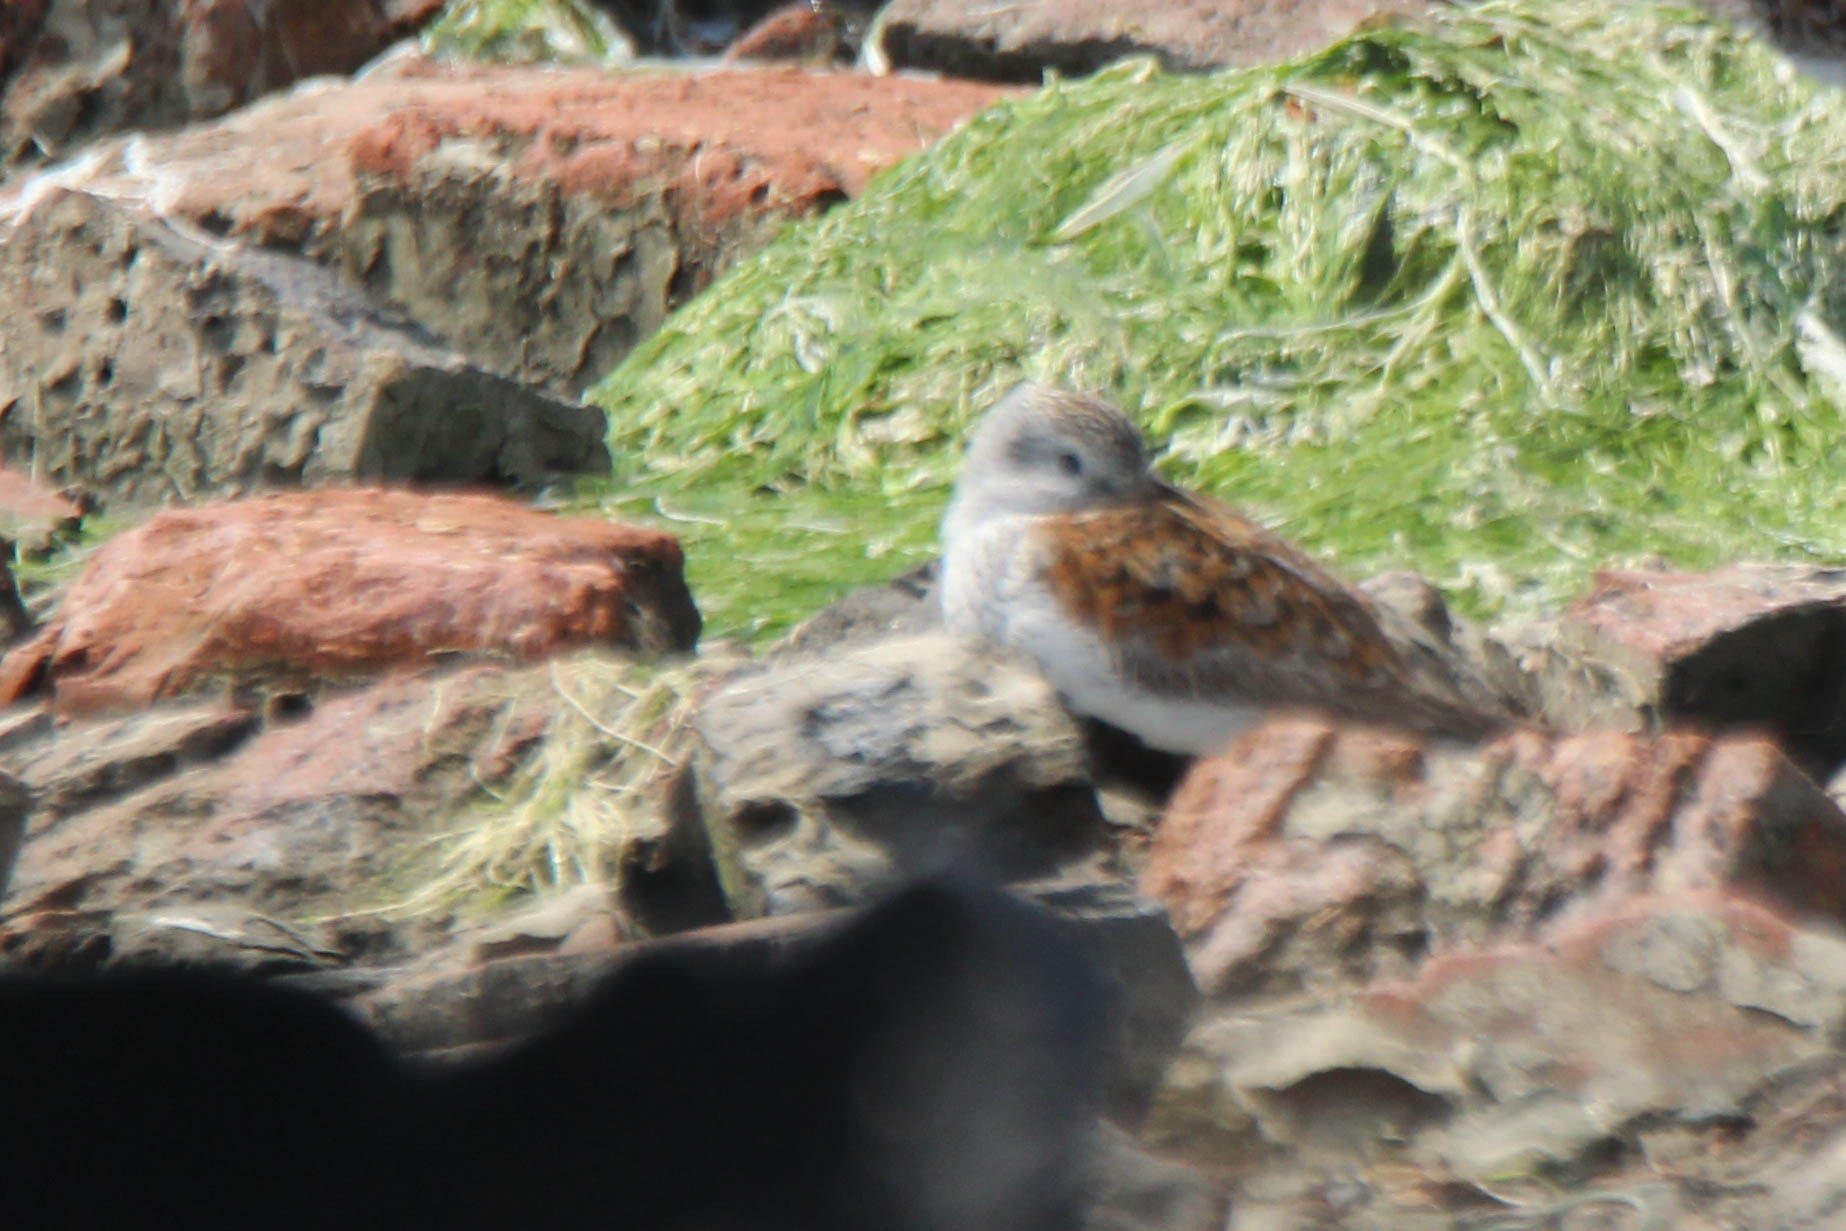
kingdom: Animalia
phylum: Chordata
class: Aves
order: Charadriiformes
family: Scolopacidae
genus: Calidris
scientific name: Calidris alpina
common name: Dunlin
